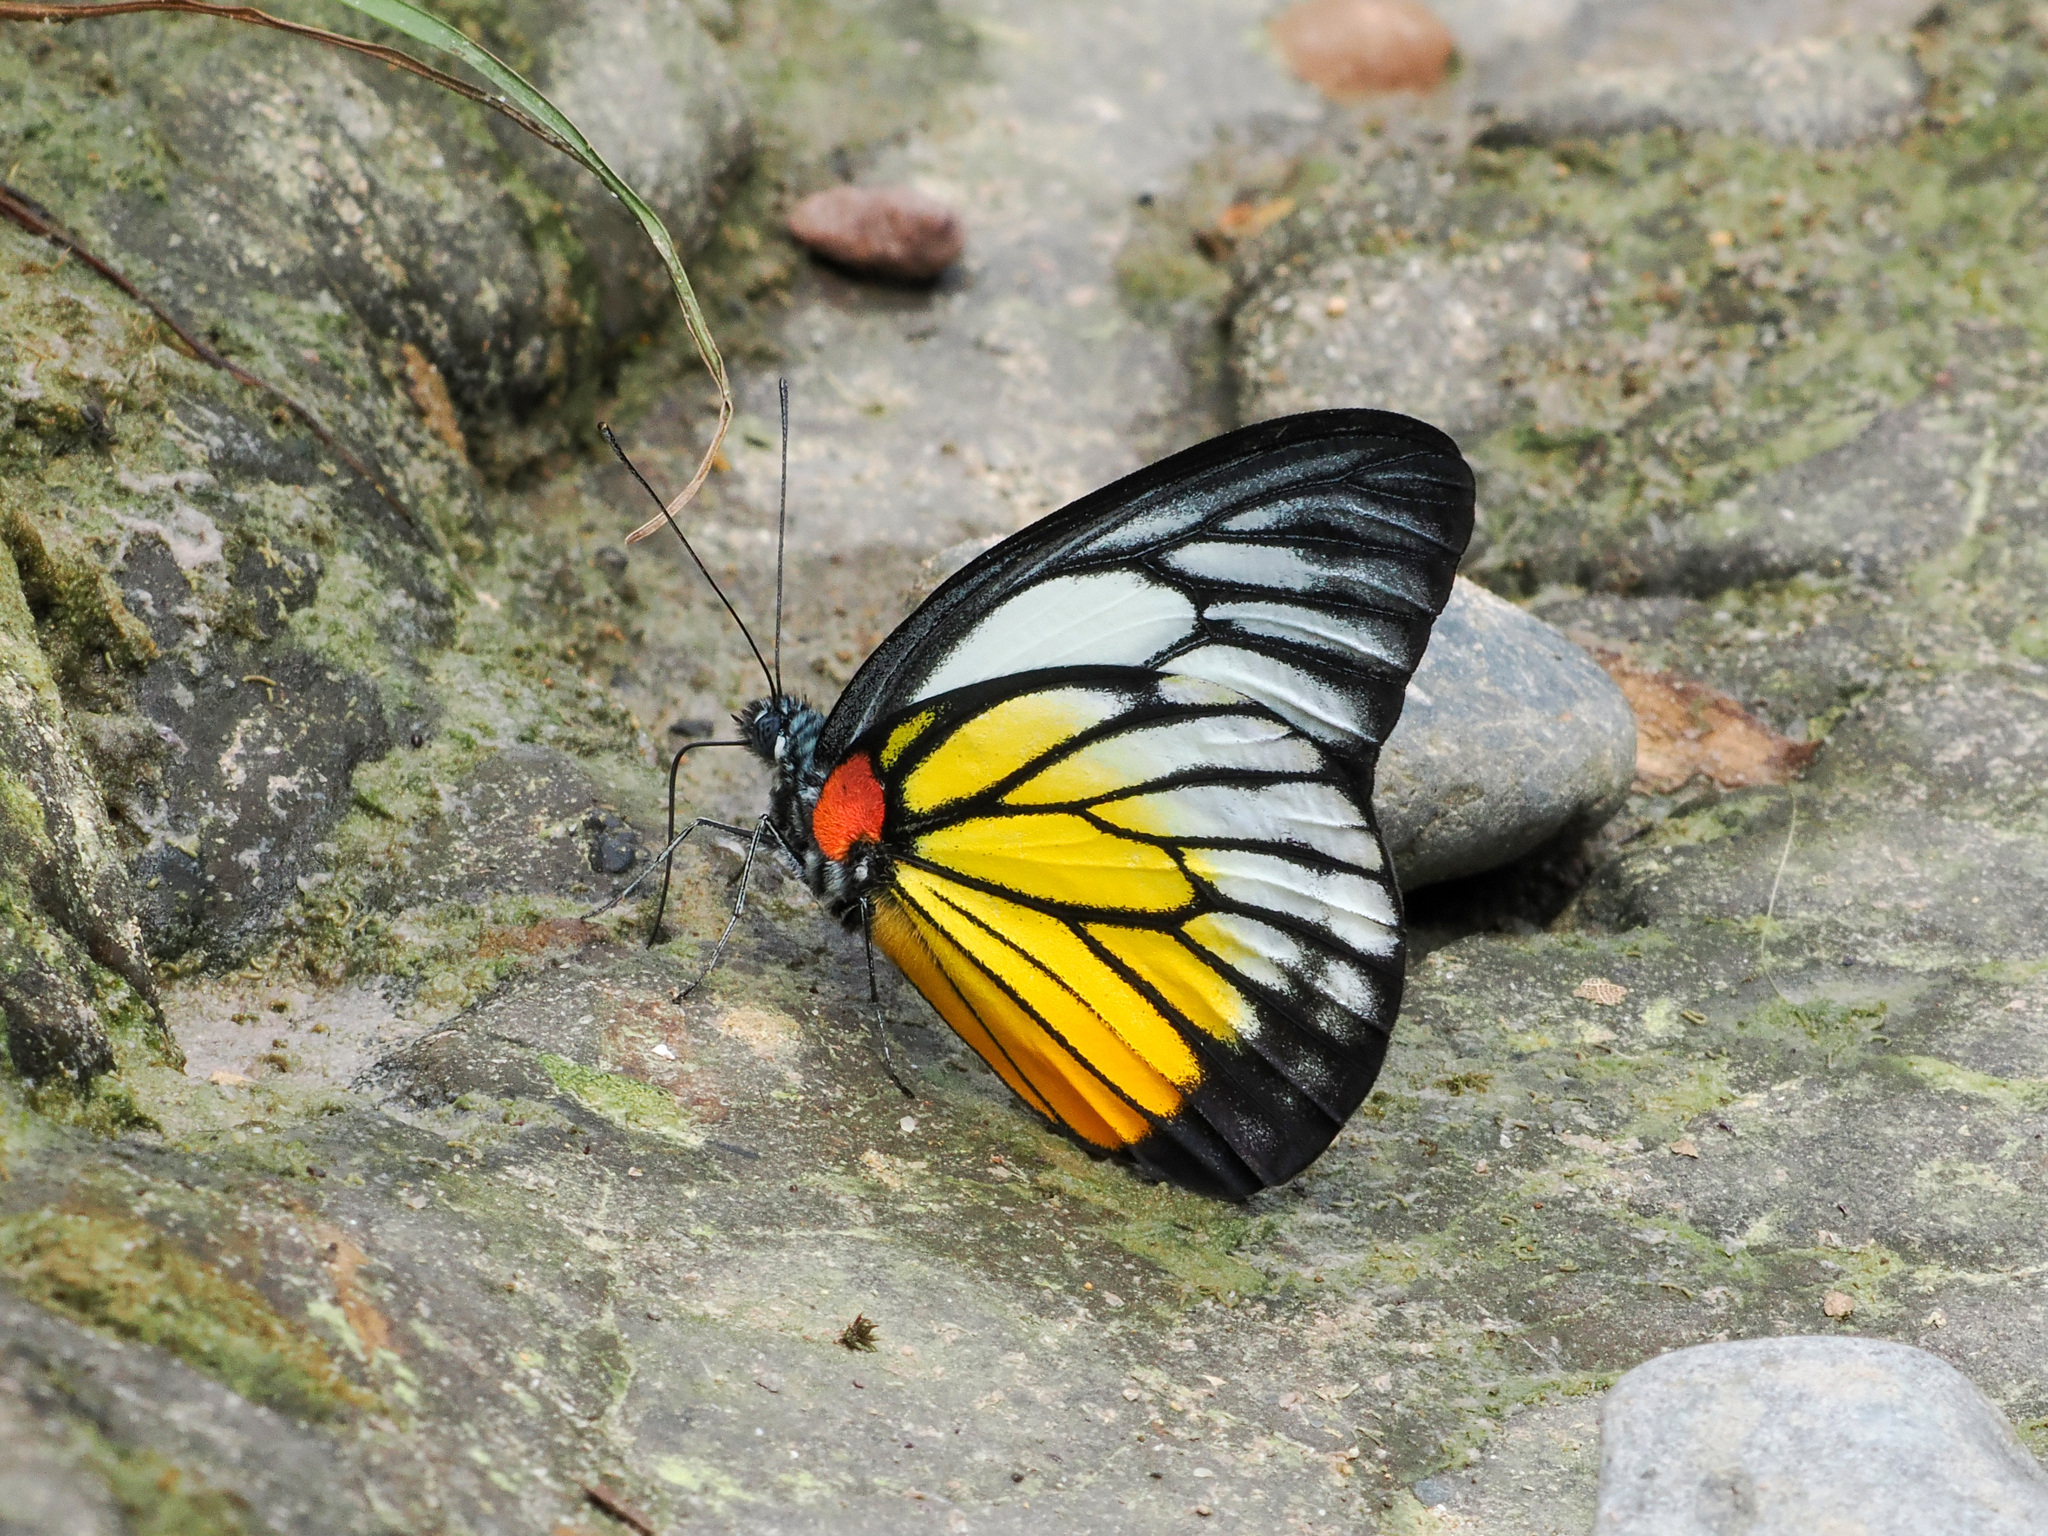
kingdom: Animalia
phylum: Arthropoda
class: Insecta
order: Lepidoptera
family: Pieridae
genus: Prioneris
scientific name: Prioneris philonome
